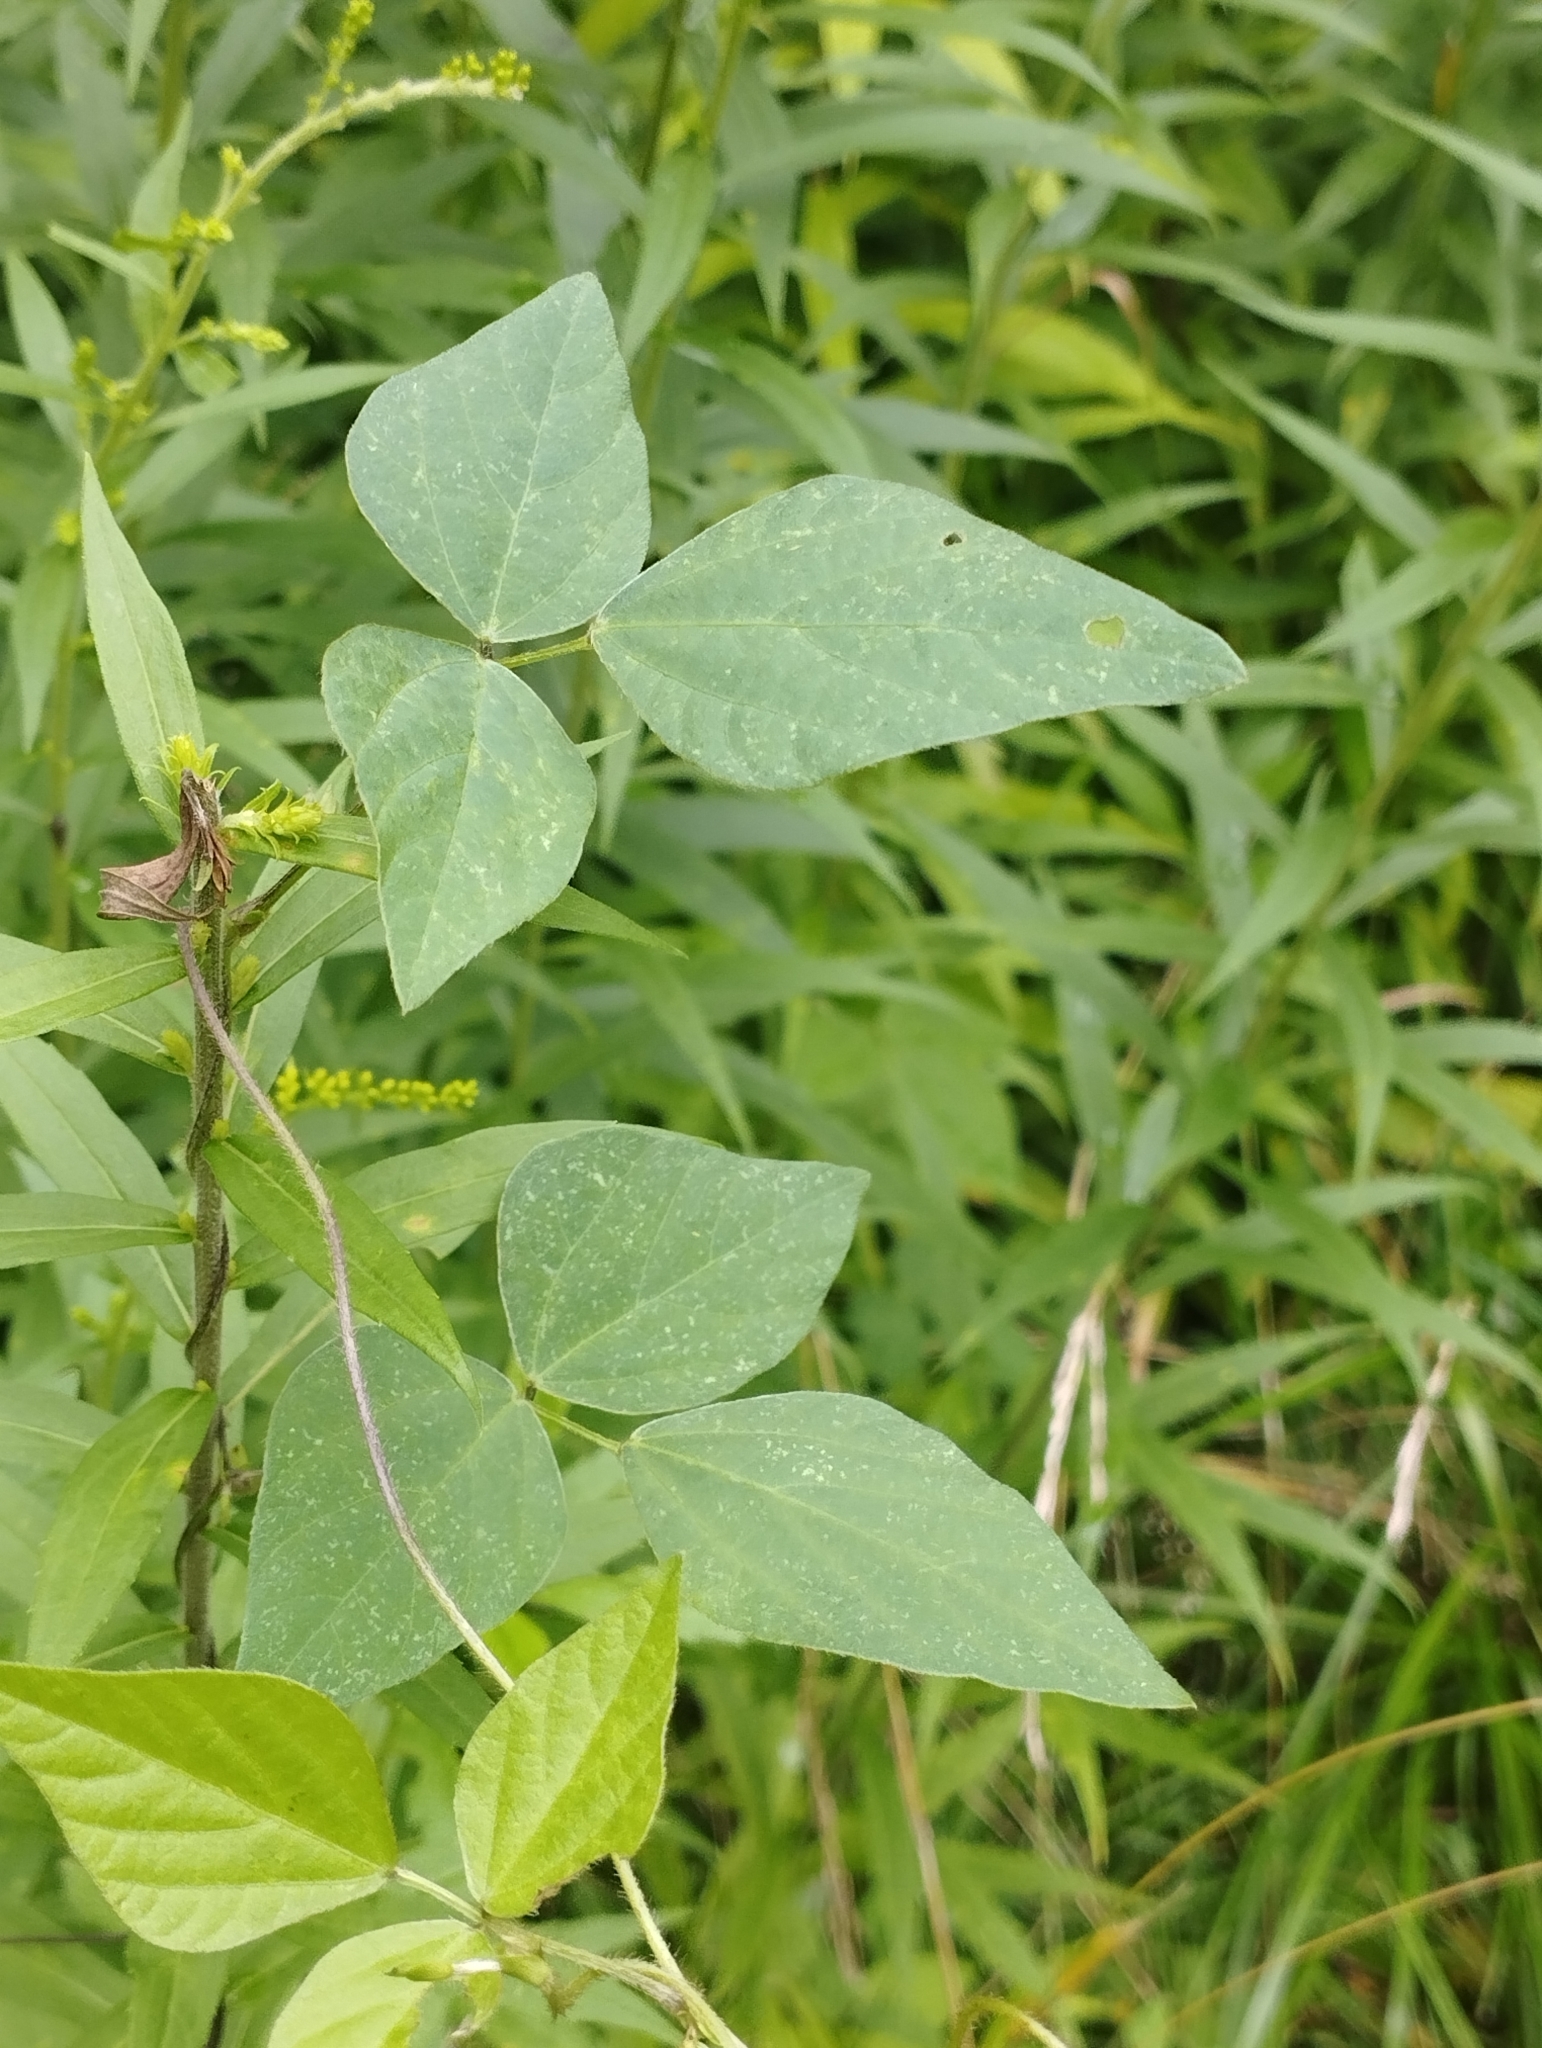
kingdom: Plantae
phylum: Tracheophyta
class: Magnoliopsida
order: Fabales
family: Fabaceae
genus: Amphicarpaea
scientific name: Amphicarpaea edgeworthii
